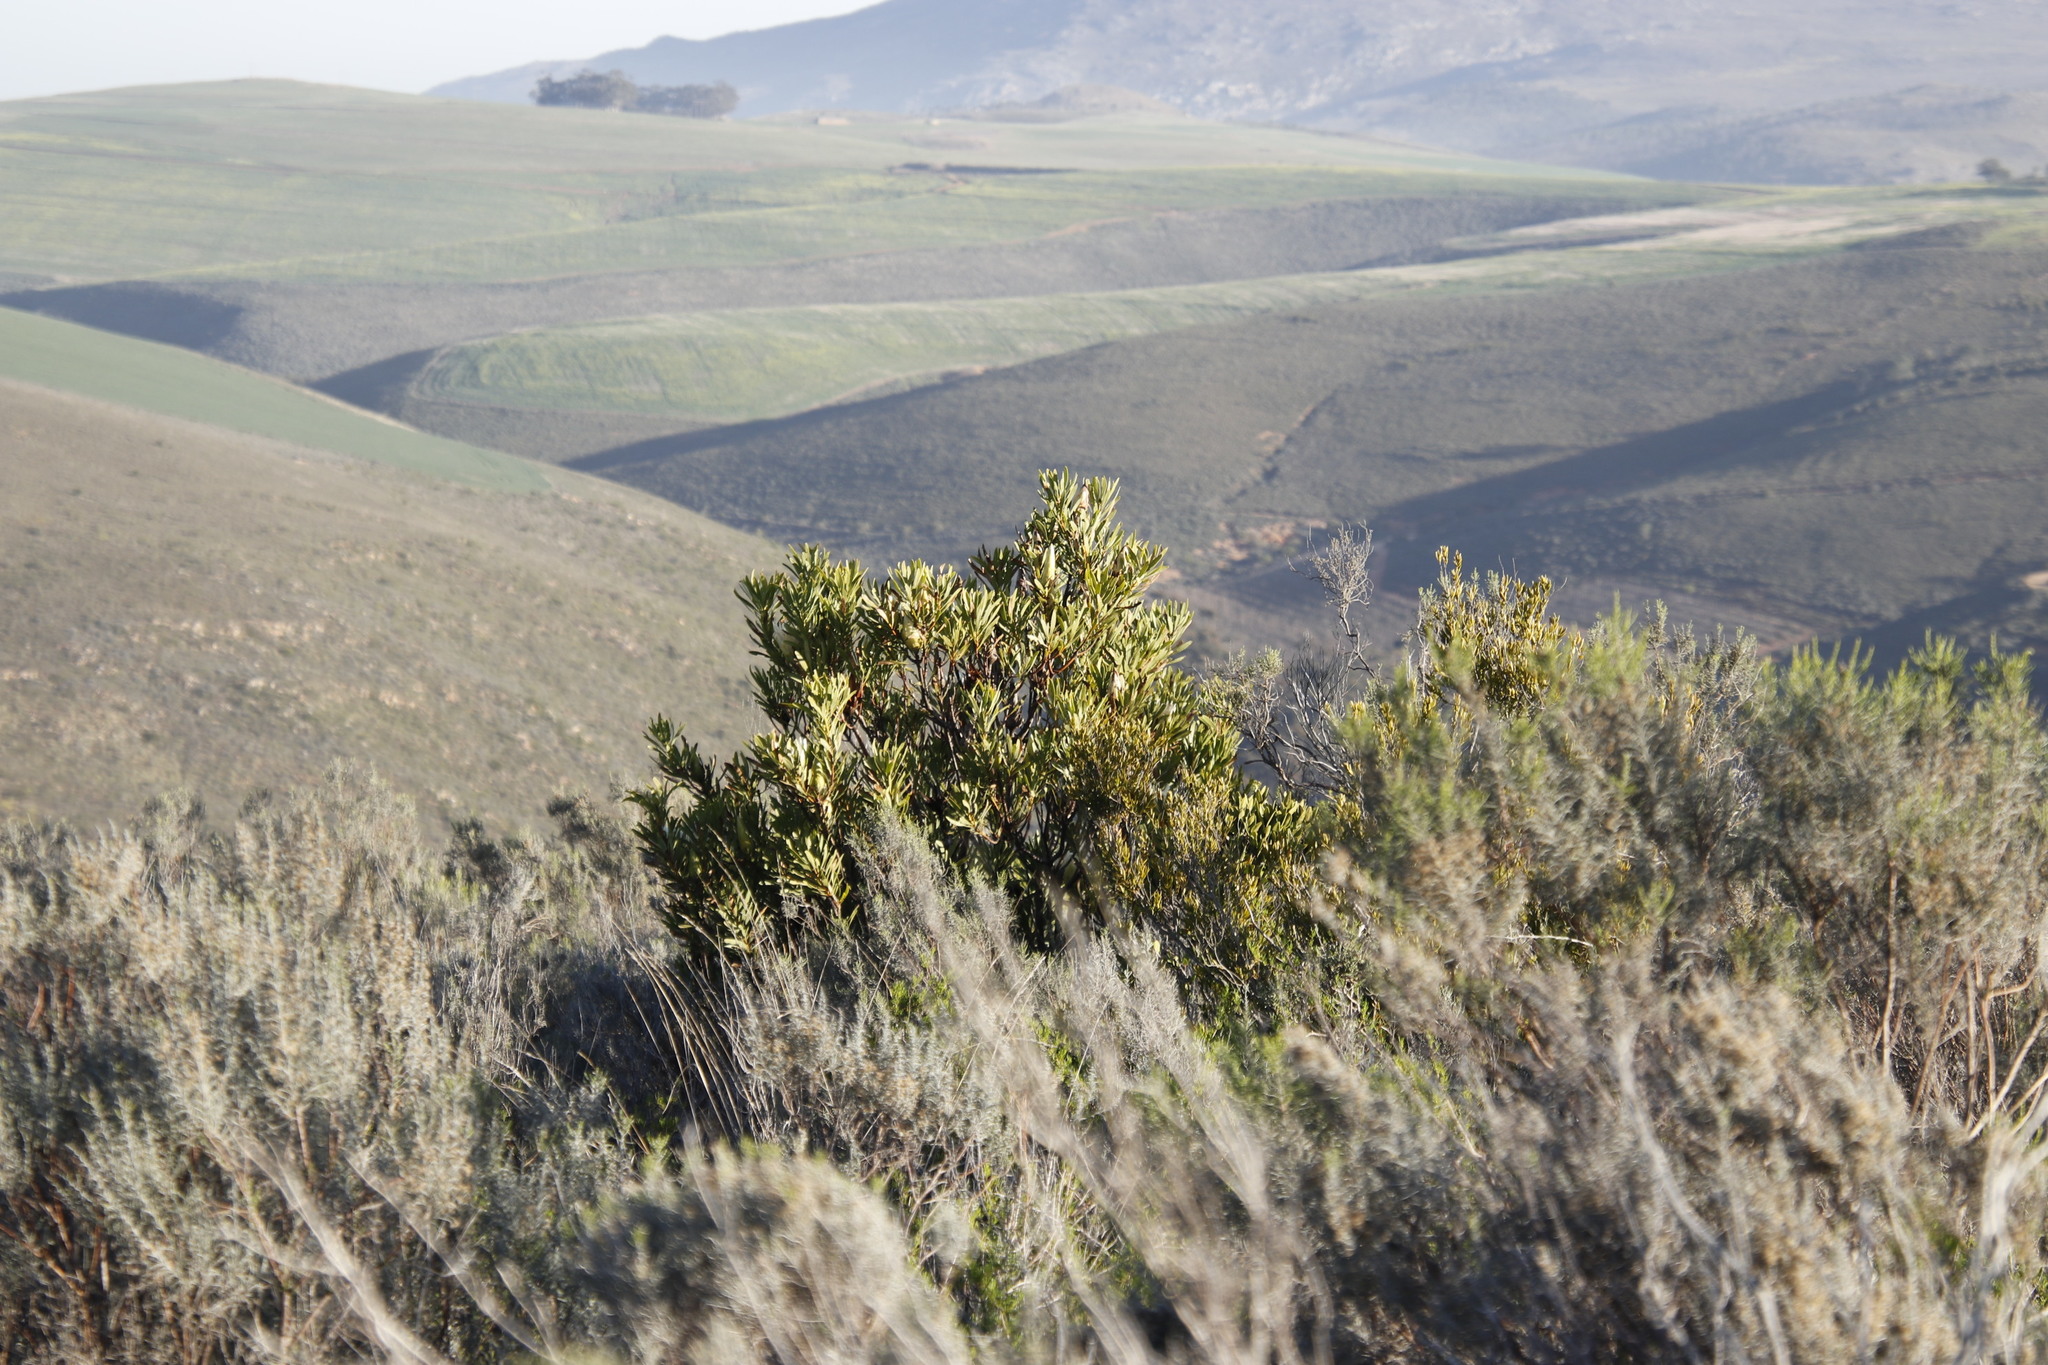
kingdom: Plantae
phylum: Tracheophyta
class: Magnoliopsida
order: Proteales
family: Proteaceae
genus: Protea
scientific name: Protea repens
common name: Sugarbush
